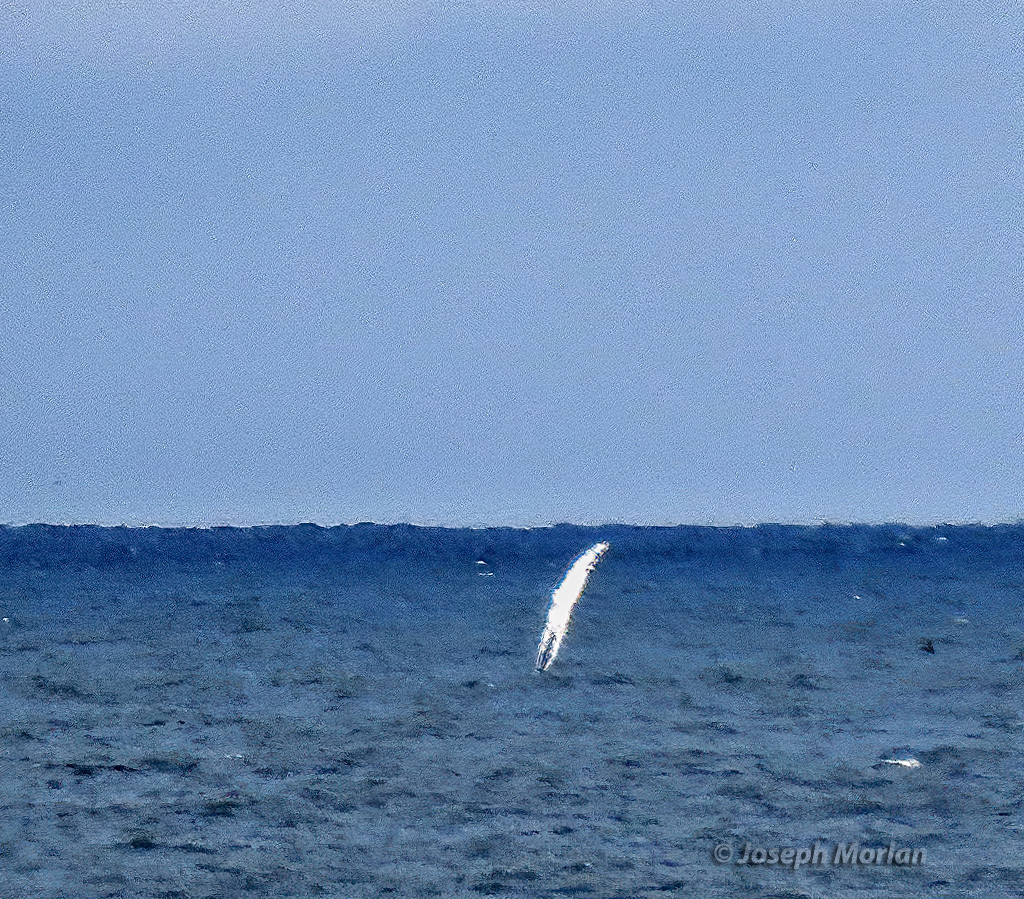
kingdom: Animalia
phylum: Chordata
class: Mammalia
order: Cetacea
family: Balaenopteridae
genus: Megaptera
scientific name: Megaptera novaeangliae
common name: Humpback whale
